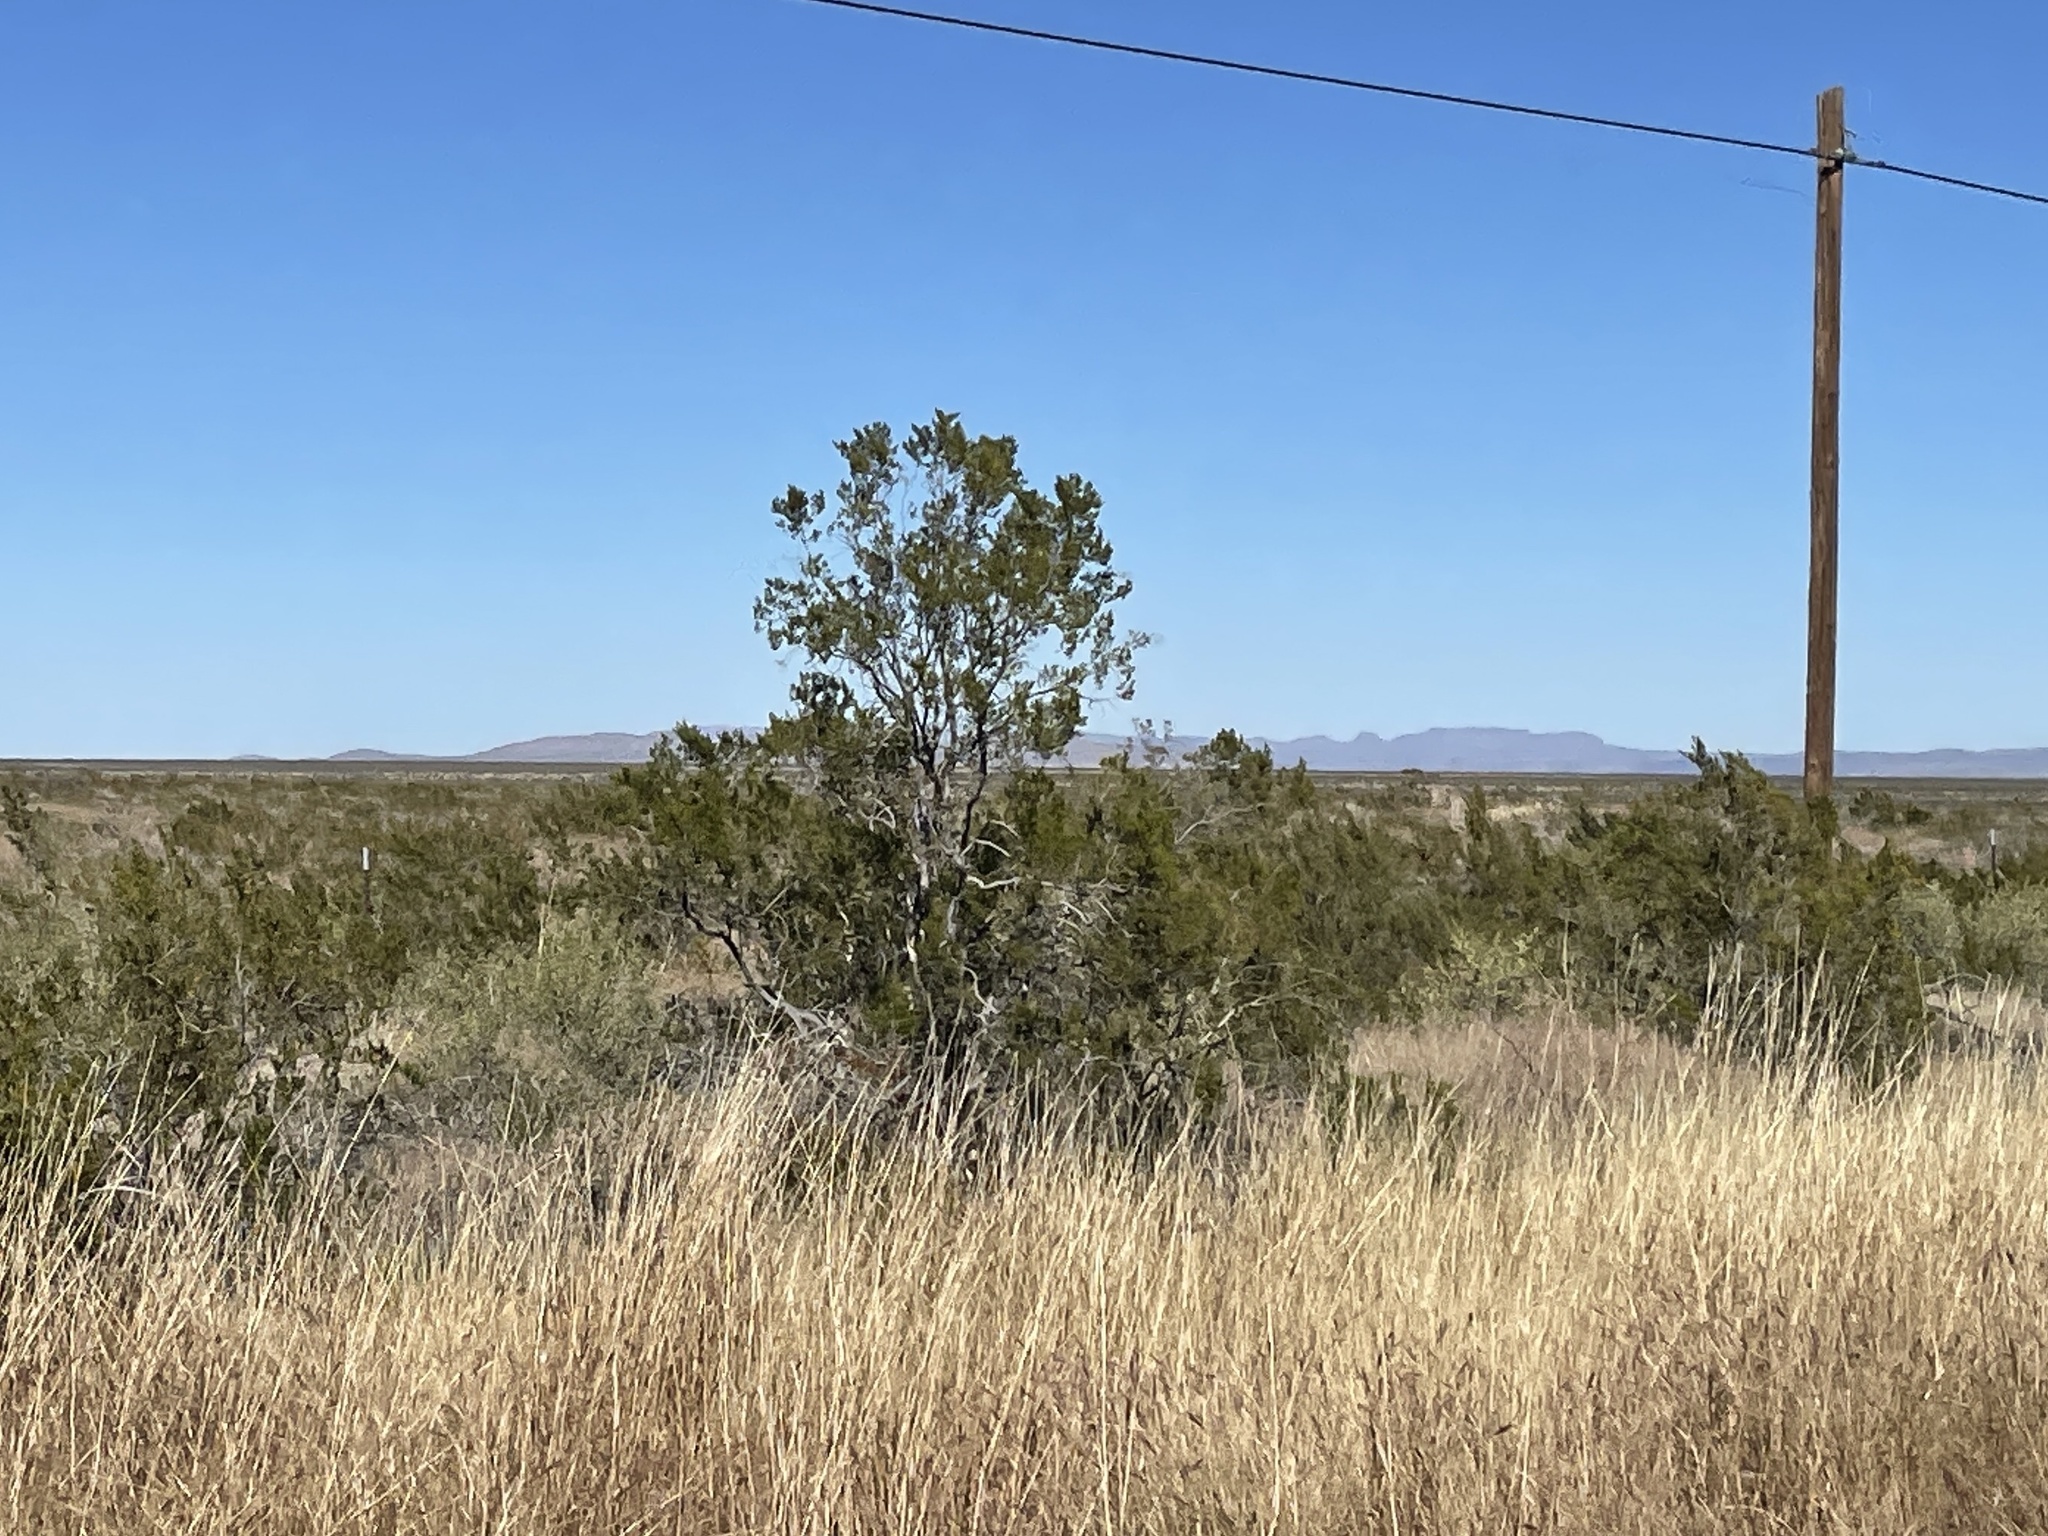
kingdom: Plantae
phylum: Tracheophyta
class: Magnoliopsida
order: Zygophyllales
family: Zygophyllaceae
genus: Larrea
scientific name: Larrea tridentata
